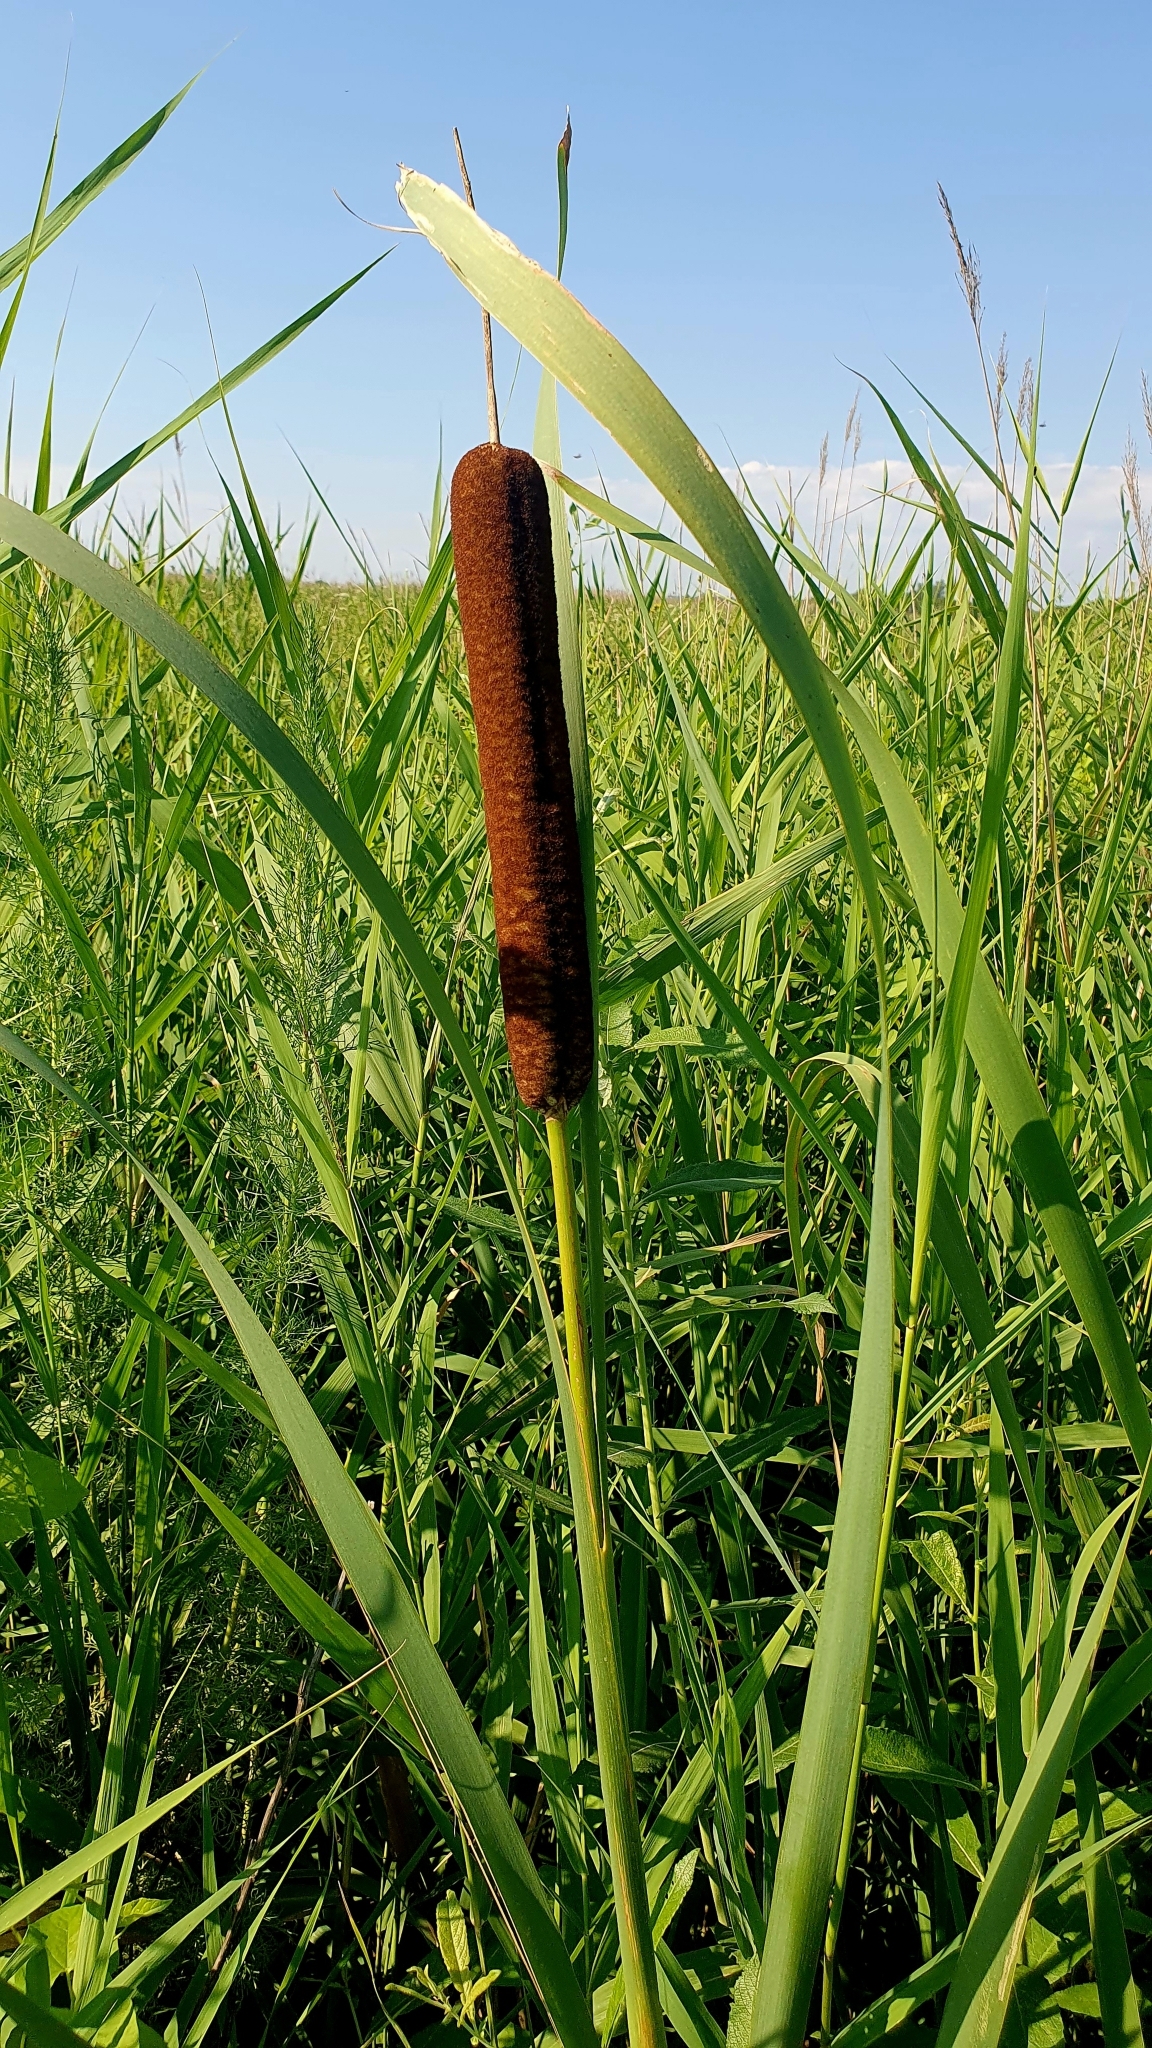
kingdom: Plantae
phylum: Tracheophyta
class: Liliopsida
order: Poales
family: Typhaceae
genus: Typha
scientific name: Typha latifolia
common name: Broadleaf cattail
